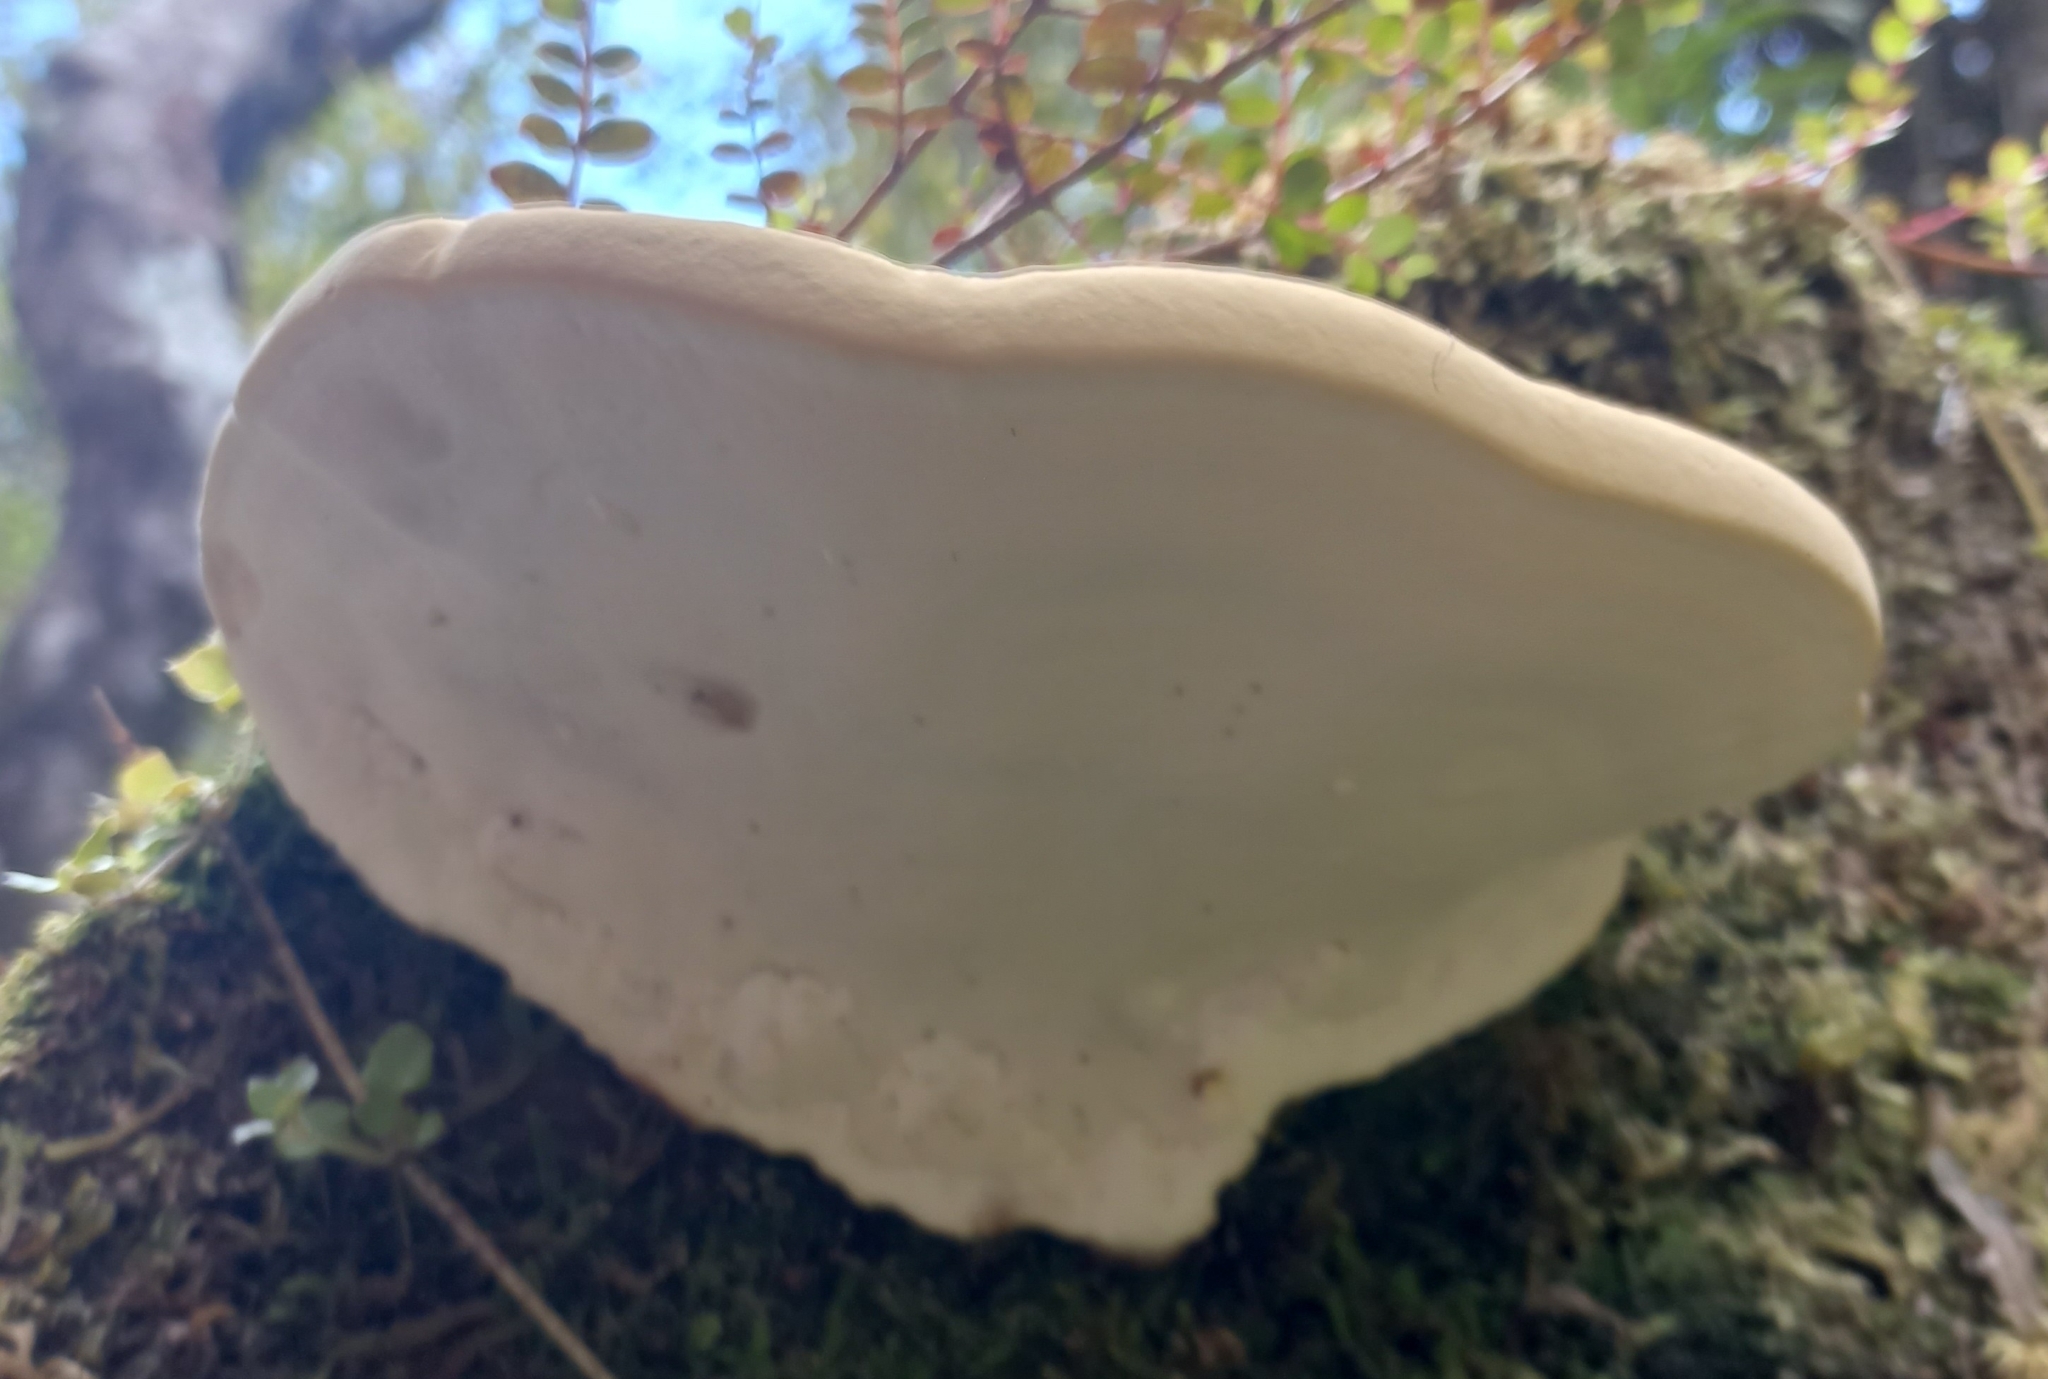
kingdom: Fungi
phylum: Basidiomycota
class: Agaricomycetes
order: Polyporales
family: Fomitopsidaceae
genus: Pilatoporus
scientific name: Pilatoporus hemitephrus
